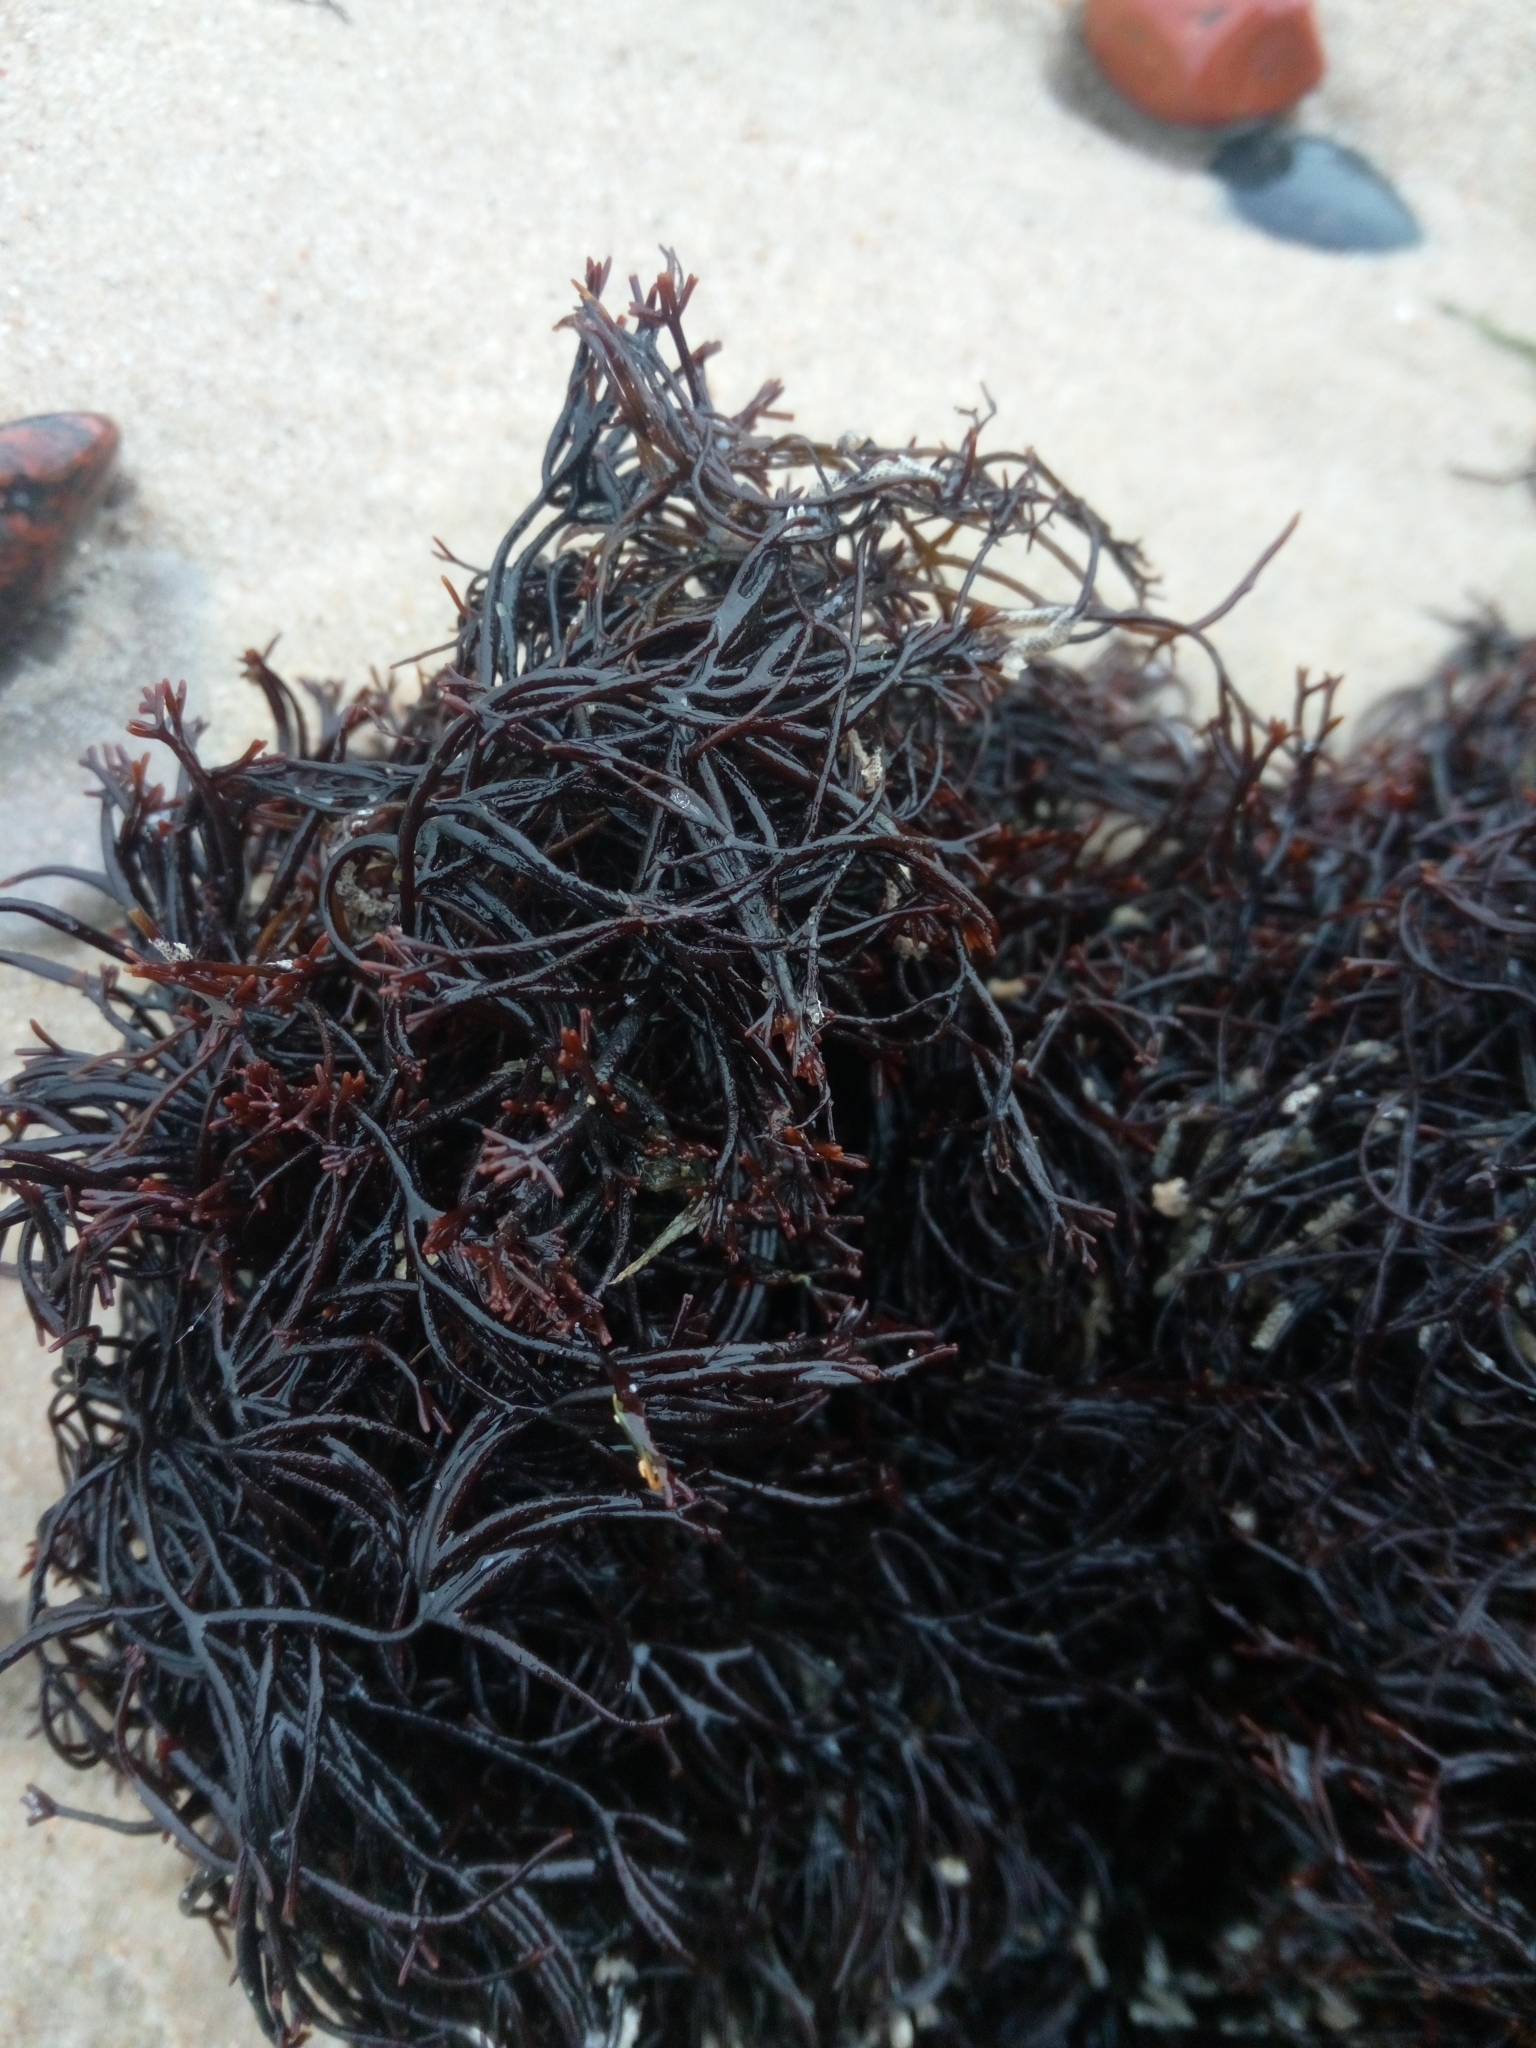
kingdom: Plantae
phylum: Rhodophyta
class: Florideophyceae
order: Gigartinales
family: Furcellariaceae
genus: Furcellaria
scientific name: Furcellaria lumbricalis
